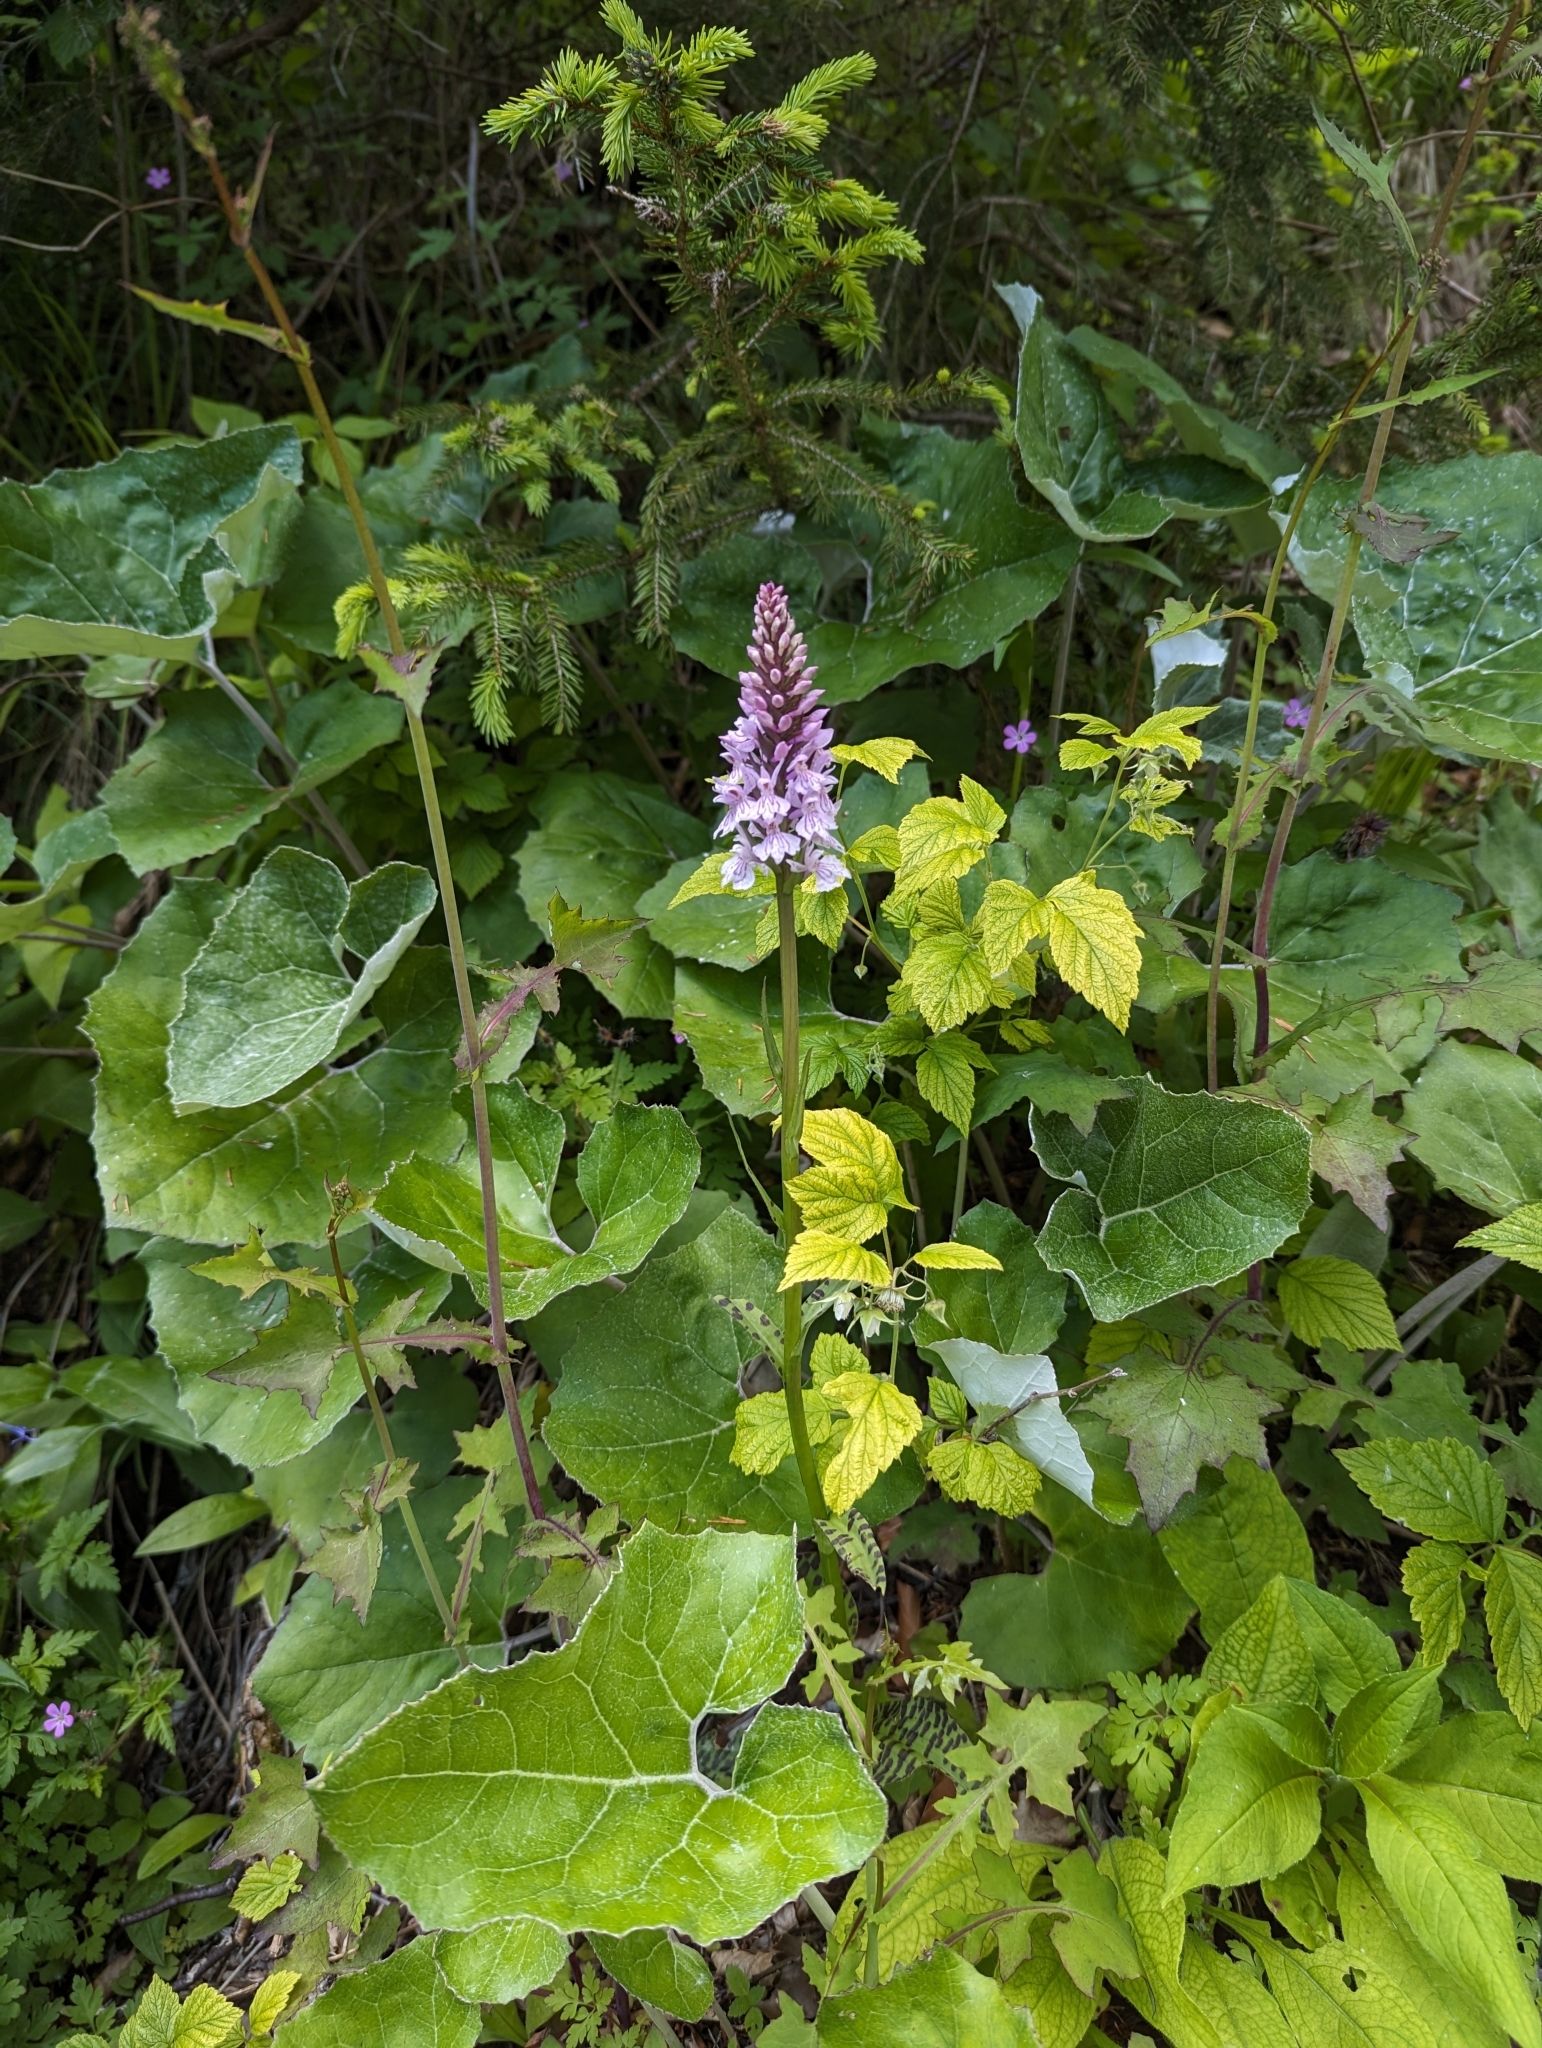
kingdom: Plantae
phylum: Tracheophyta
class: Liliopsida
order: Asparagales
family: Orchidaceae
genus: Dactylorhiza
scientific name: Dactylorhiza maculata
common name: Heath spotted-orchid
